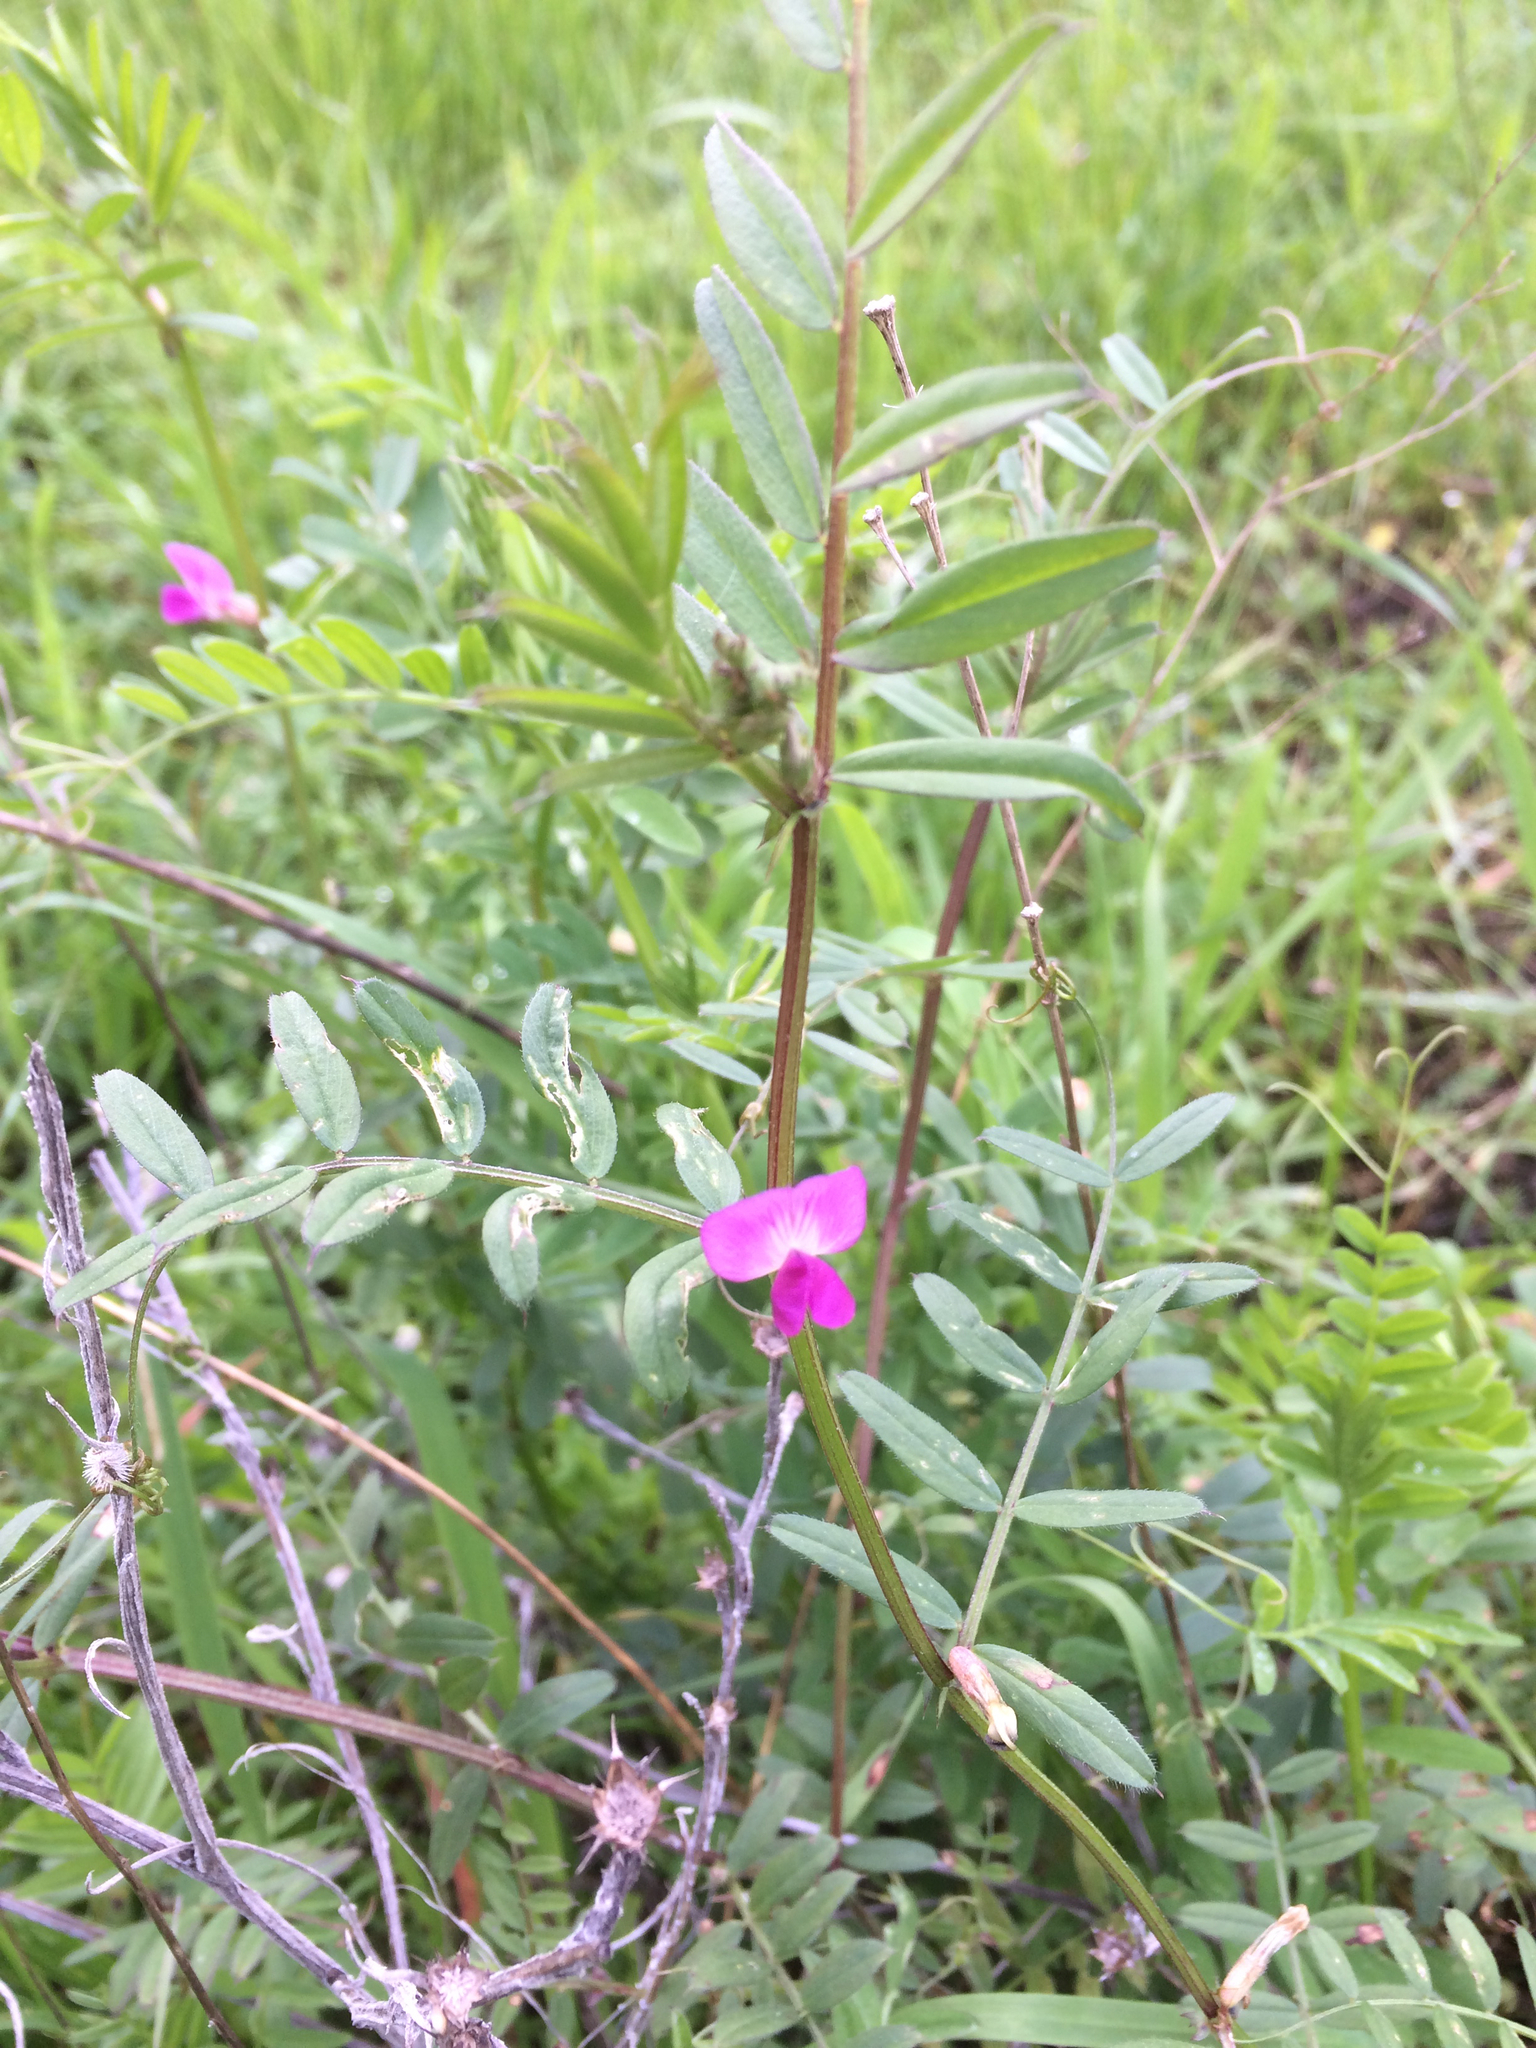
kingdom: Plantae
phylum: Tracheophyta
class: Magnoliopsida
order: Fabales
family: Fabaceae
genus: Vicia
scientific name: Vicia sativa
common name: Garden vetch
